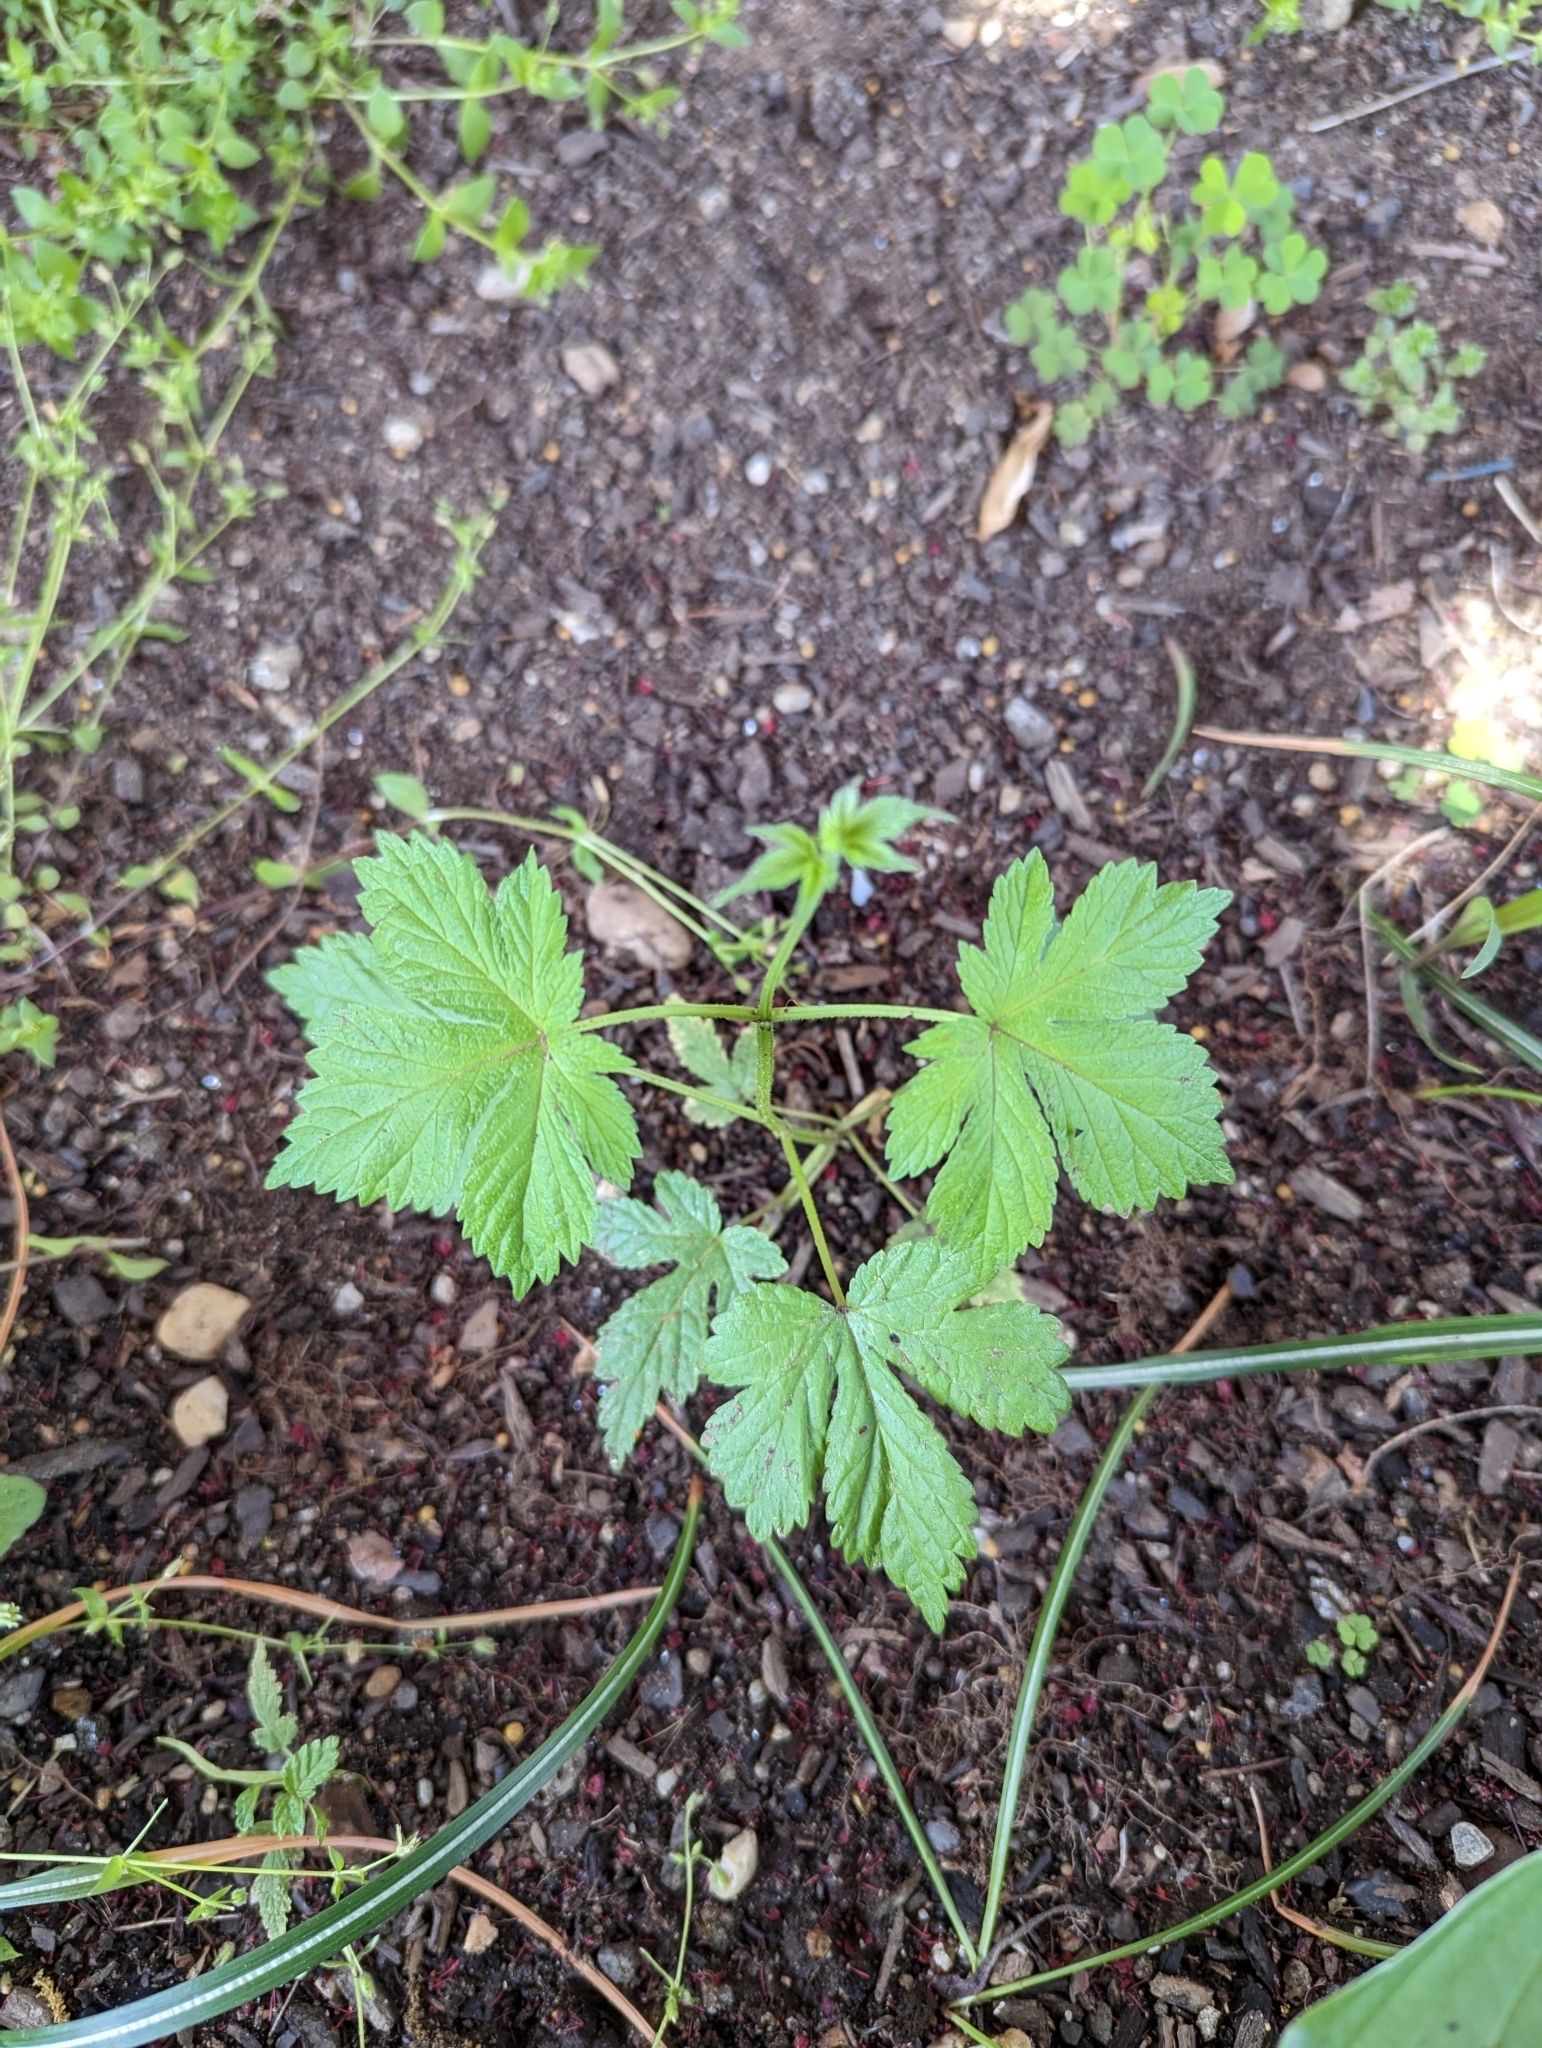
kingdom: Plantae
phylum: Tracheophyta
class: Magnoliopsida
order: Rosales
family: Cannabaceae
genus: Humulus
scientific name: Humulus scandens
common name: Japanese hop
